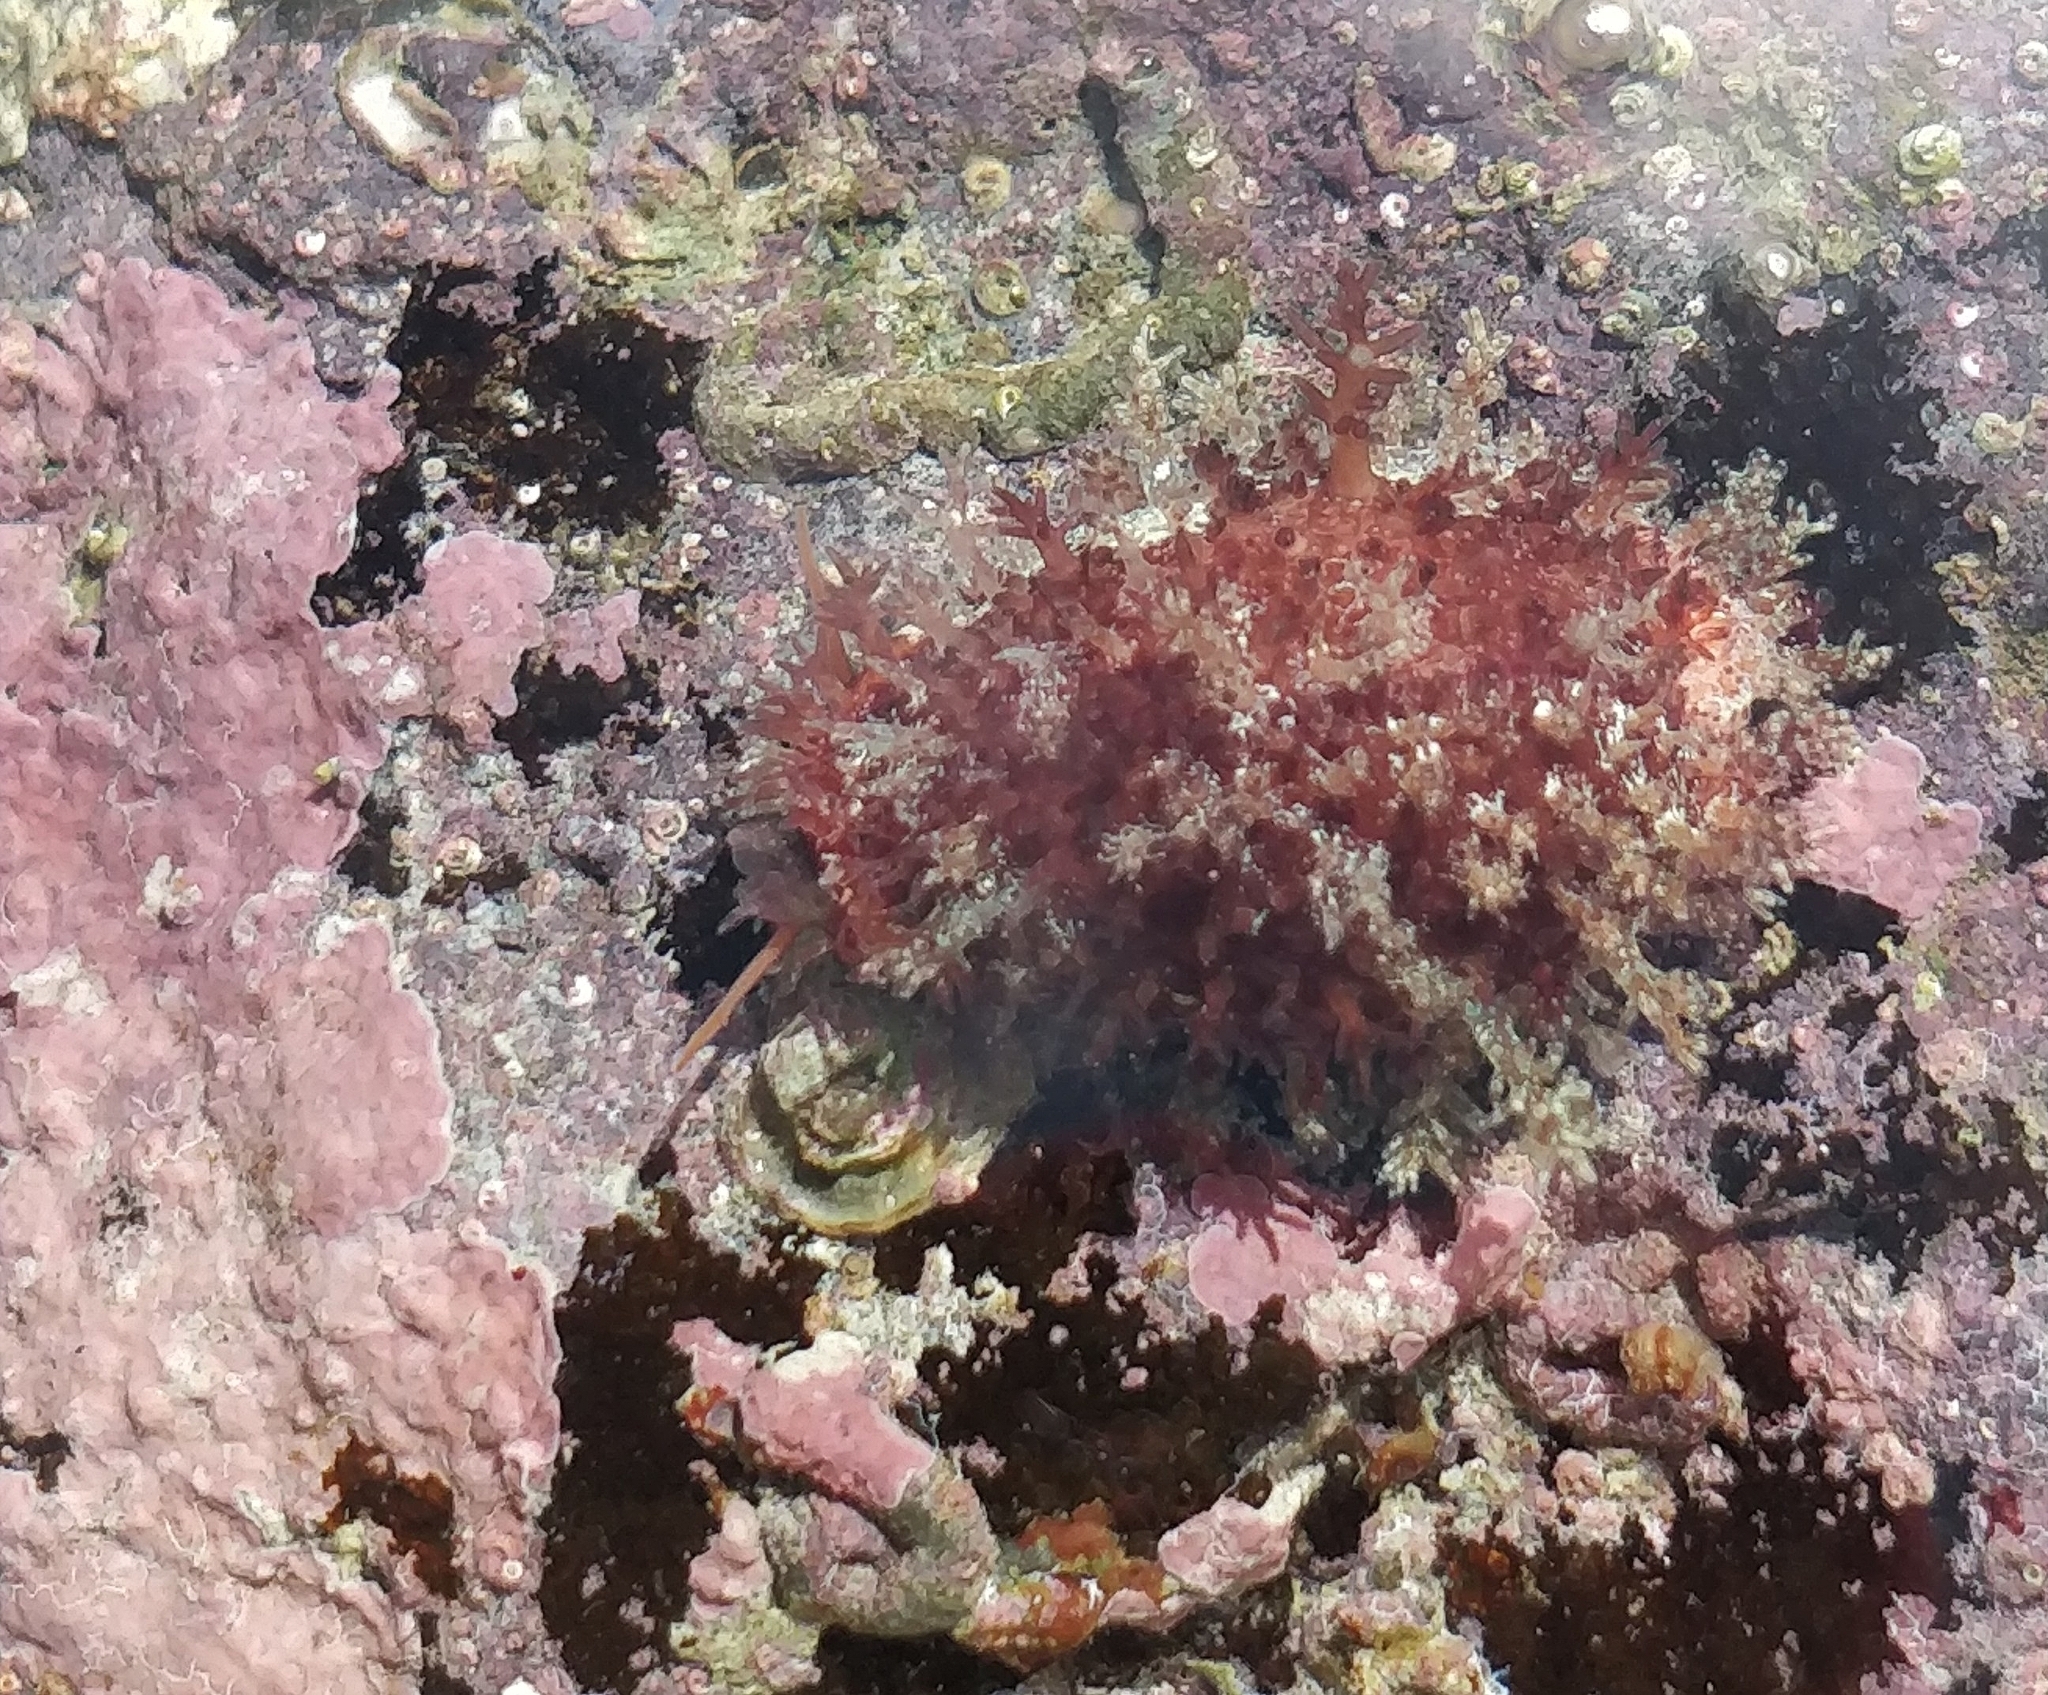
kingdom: Animalia
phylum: Mollusca
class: Gastropoda
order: Littorinimorpha
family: Cypraeidae
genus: Naria
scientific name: Naria spurca
